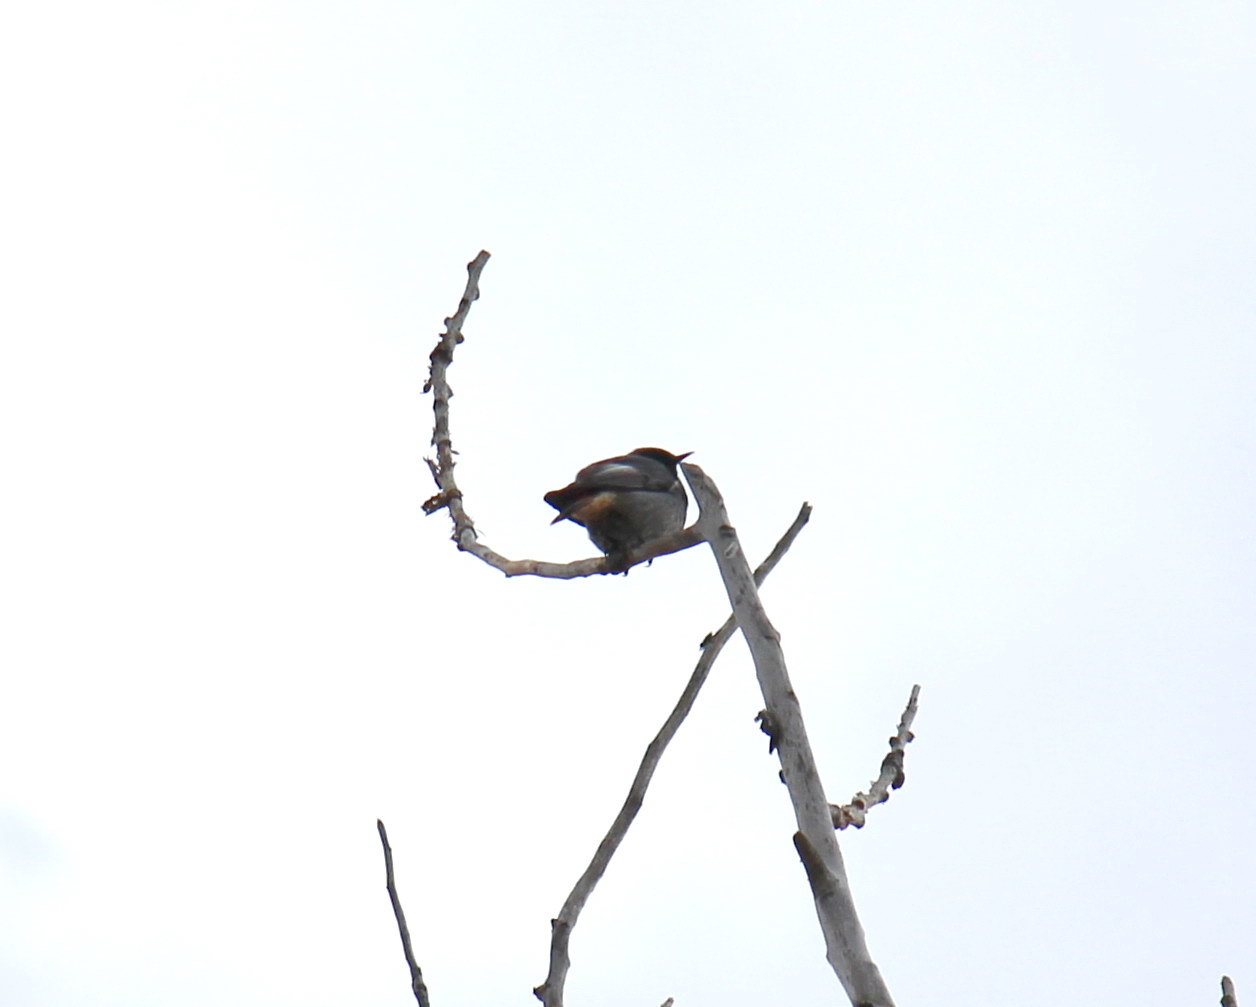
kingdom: Animalia
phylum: Chordata
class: Aves
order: Passeriformes
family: Muscicapidae
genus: Phoenicurus
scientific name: Phoenicurus ochruros
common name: Black redstart
